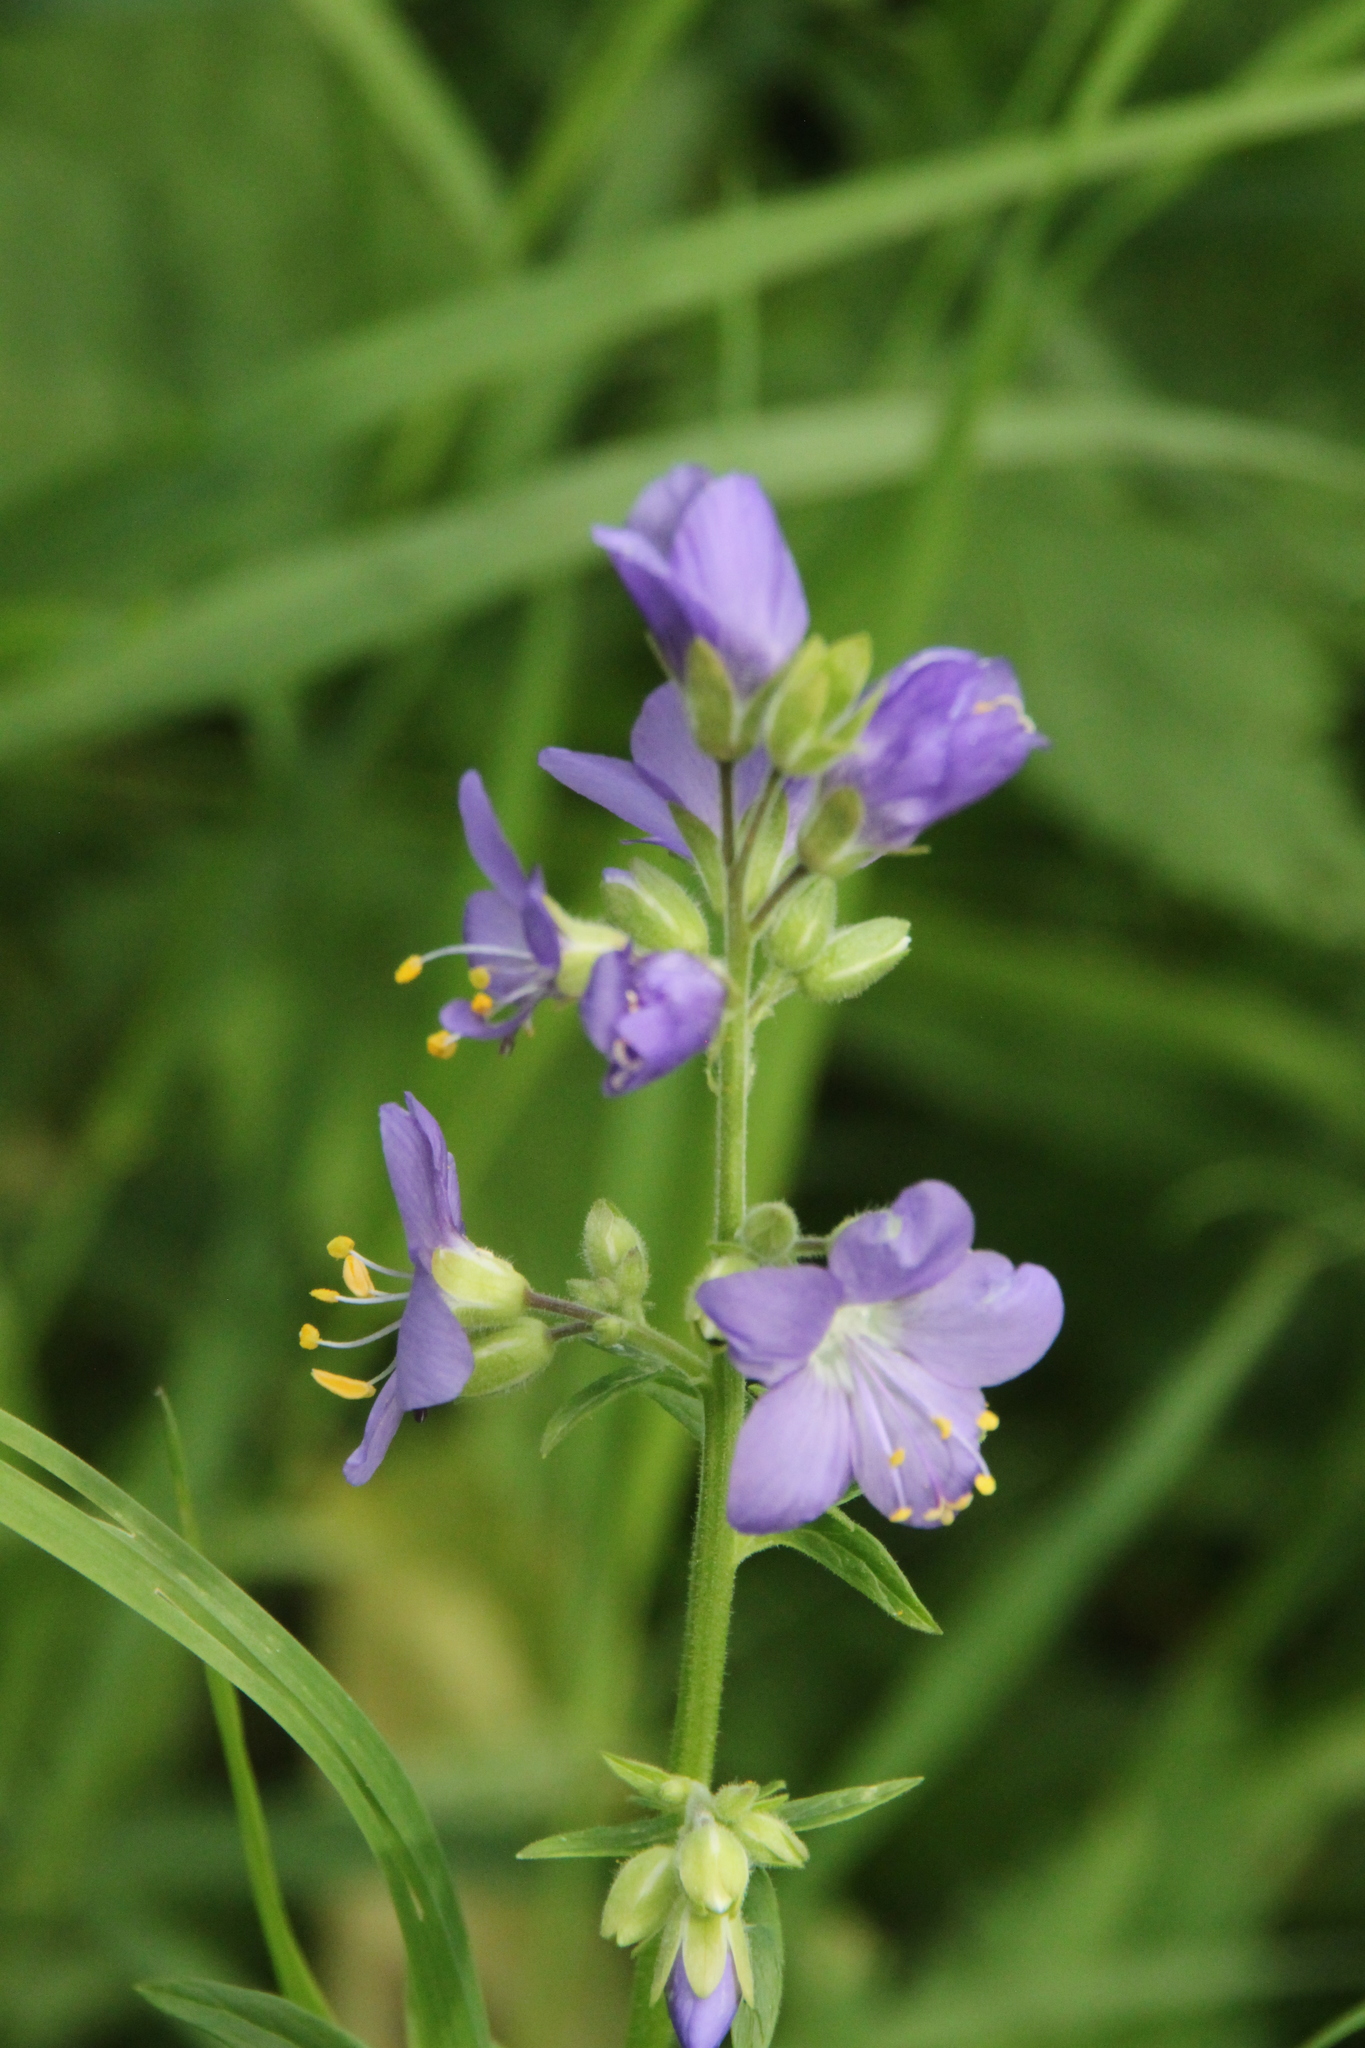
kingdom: Plantae
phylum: Tracheophyta
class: Magnoliopsida
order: Ericales
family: Polemoniaceae
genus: Polemonium
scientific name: Polemonium caeruleum
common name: Jacob's-ladder
